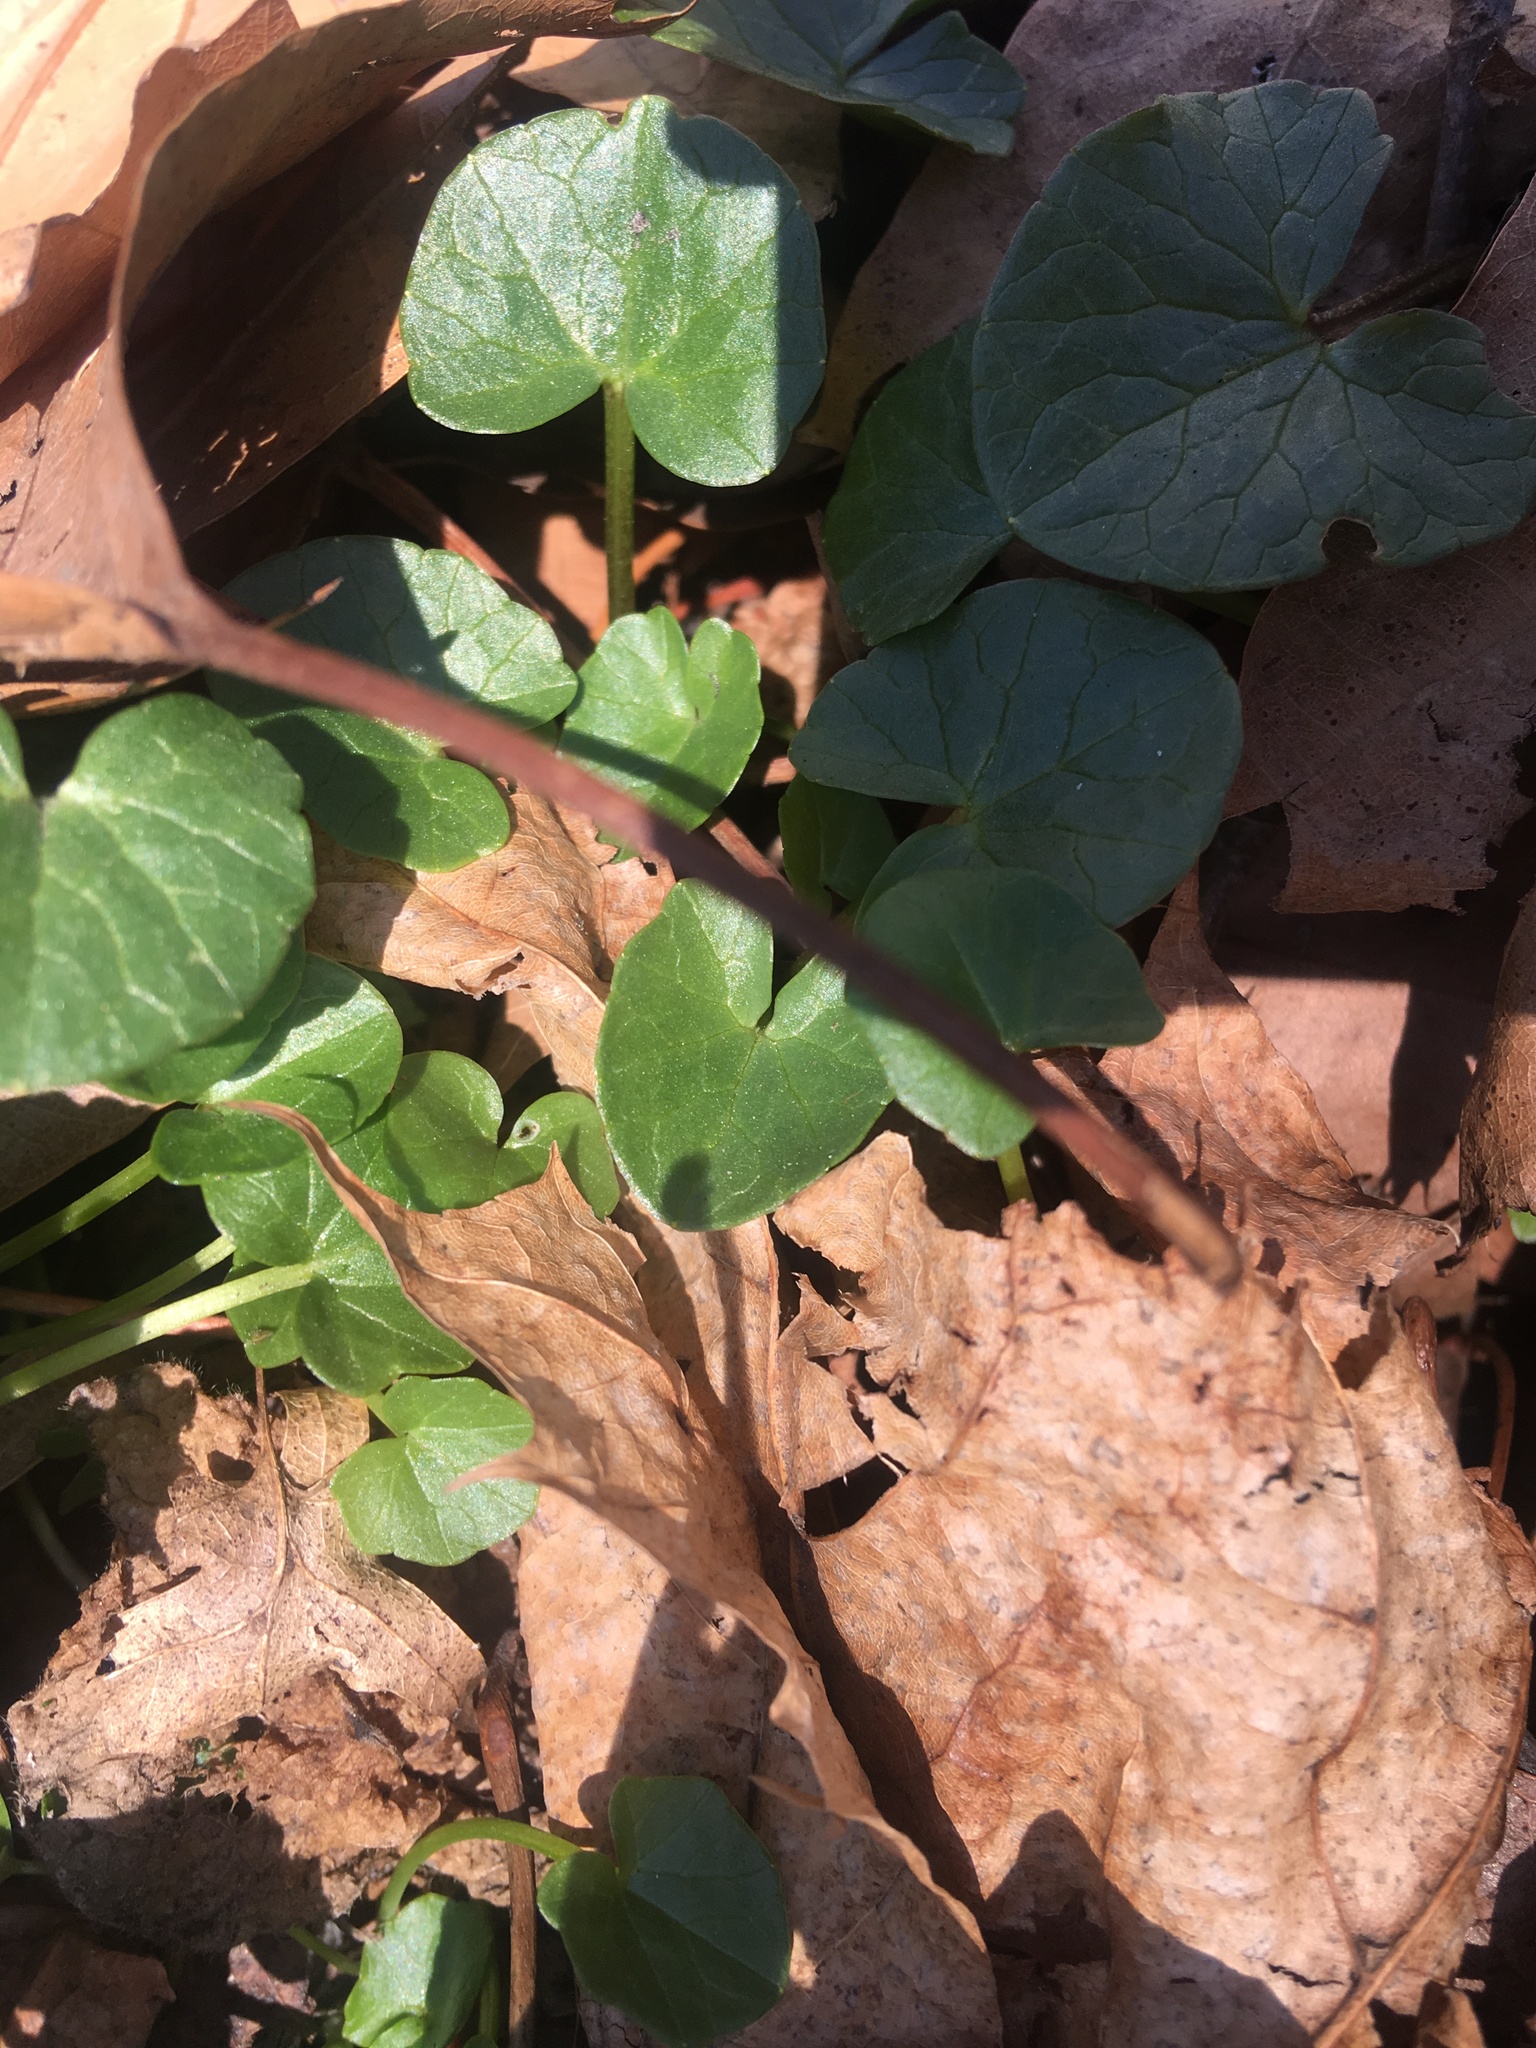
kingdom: Plantae
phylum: Tracheophyta
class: Magnoliopsida
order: Ranunculales
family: Ranunculaceae
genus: Ficaria
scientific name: Ficaria verna
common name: Lesser celandine
